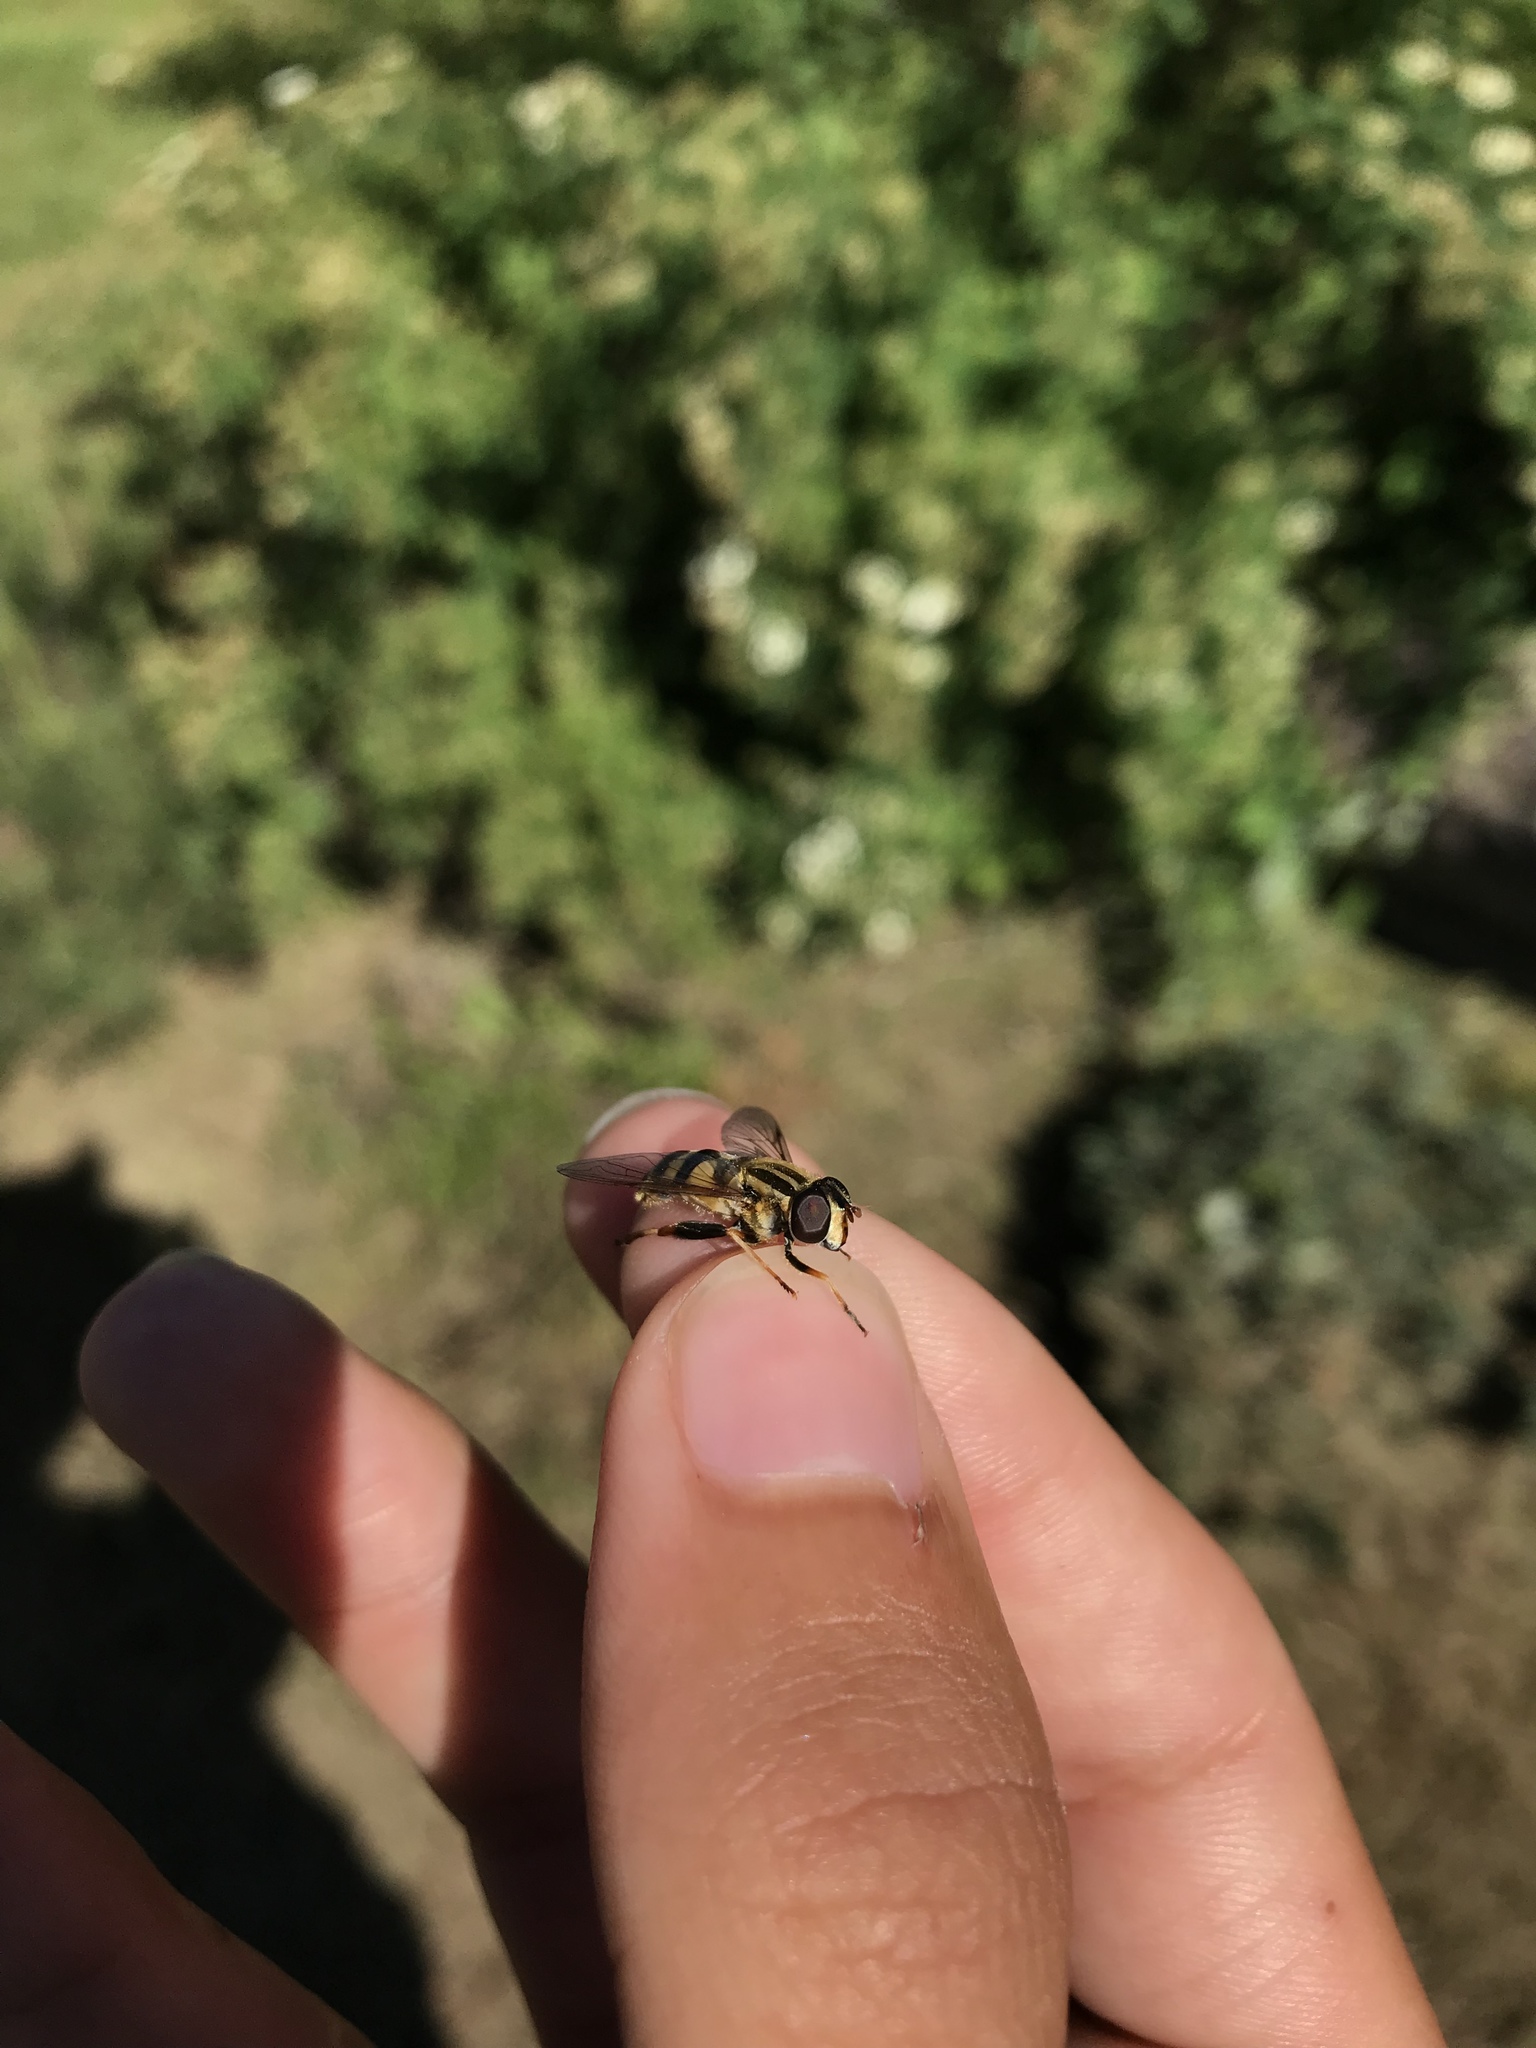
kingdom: Animalia
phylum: Arthropoda
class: Insecta
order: Diptera
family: Syrphidae
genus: Helophilus
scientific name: Helophilus fasciatus
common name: Narrow-headed marsh fly
